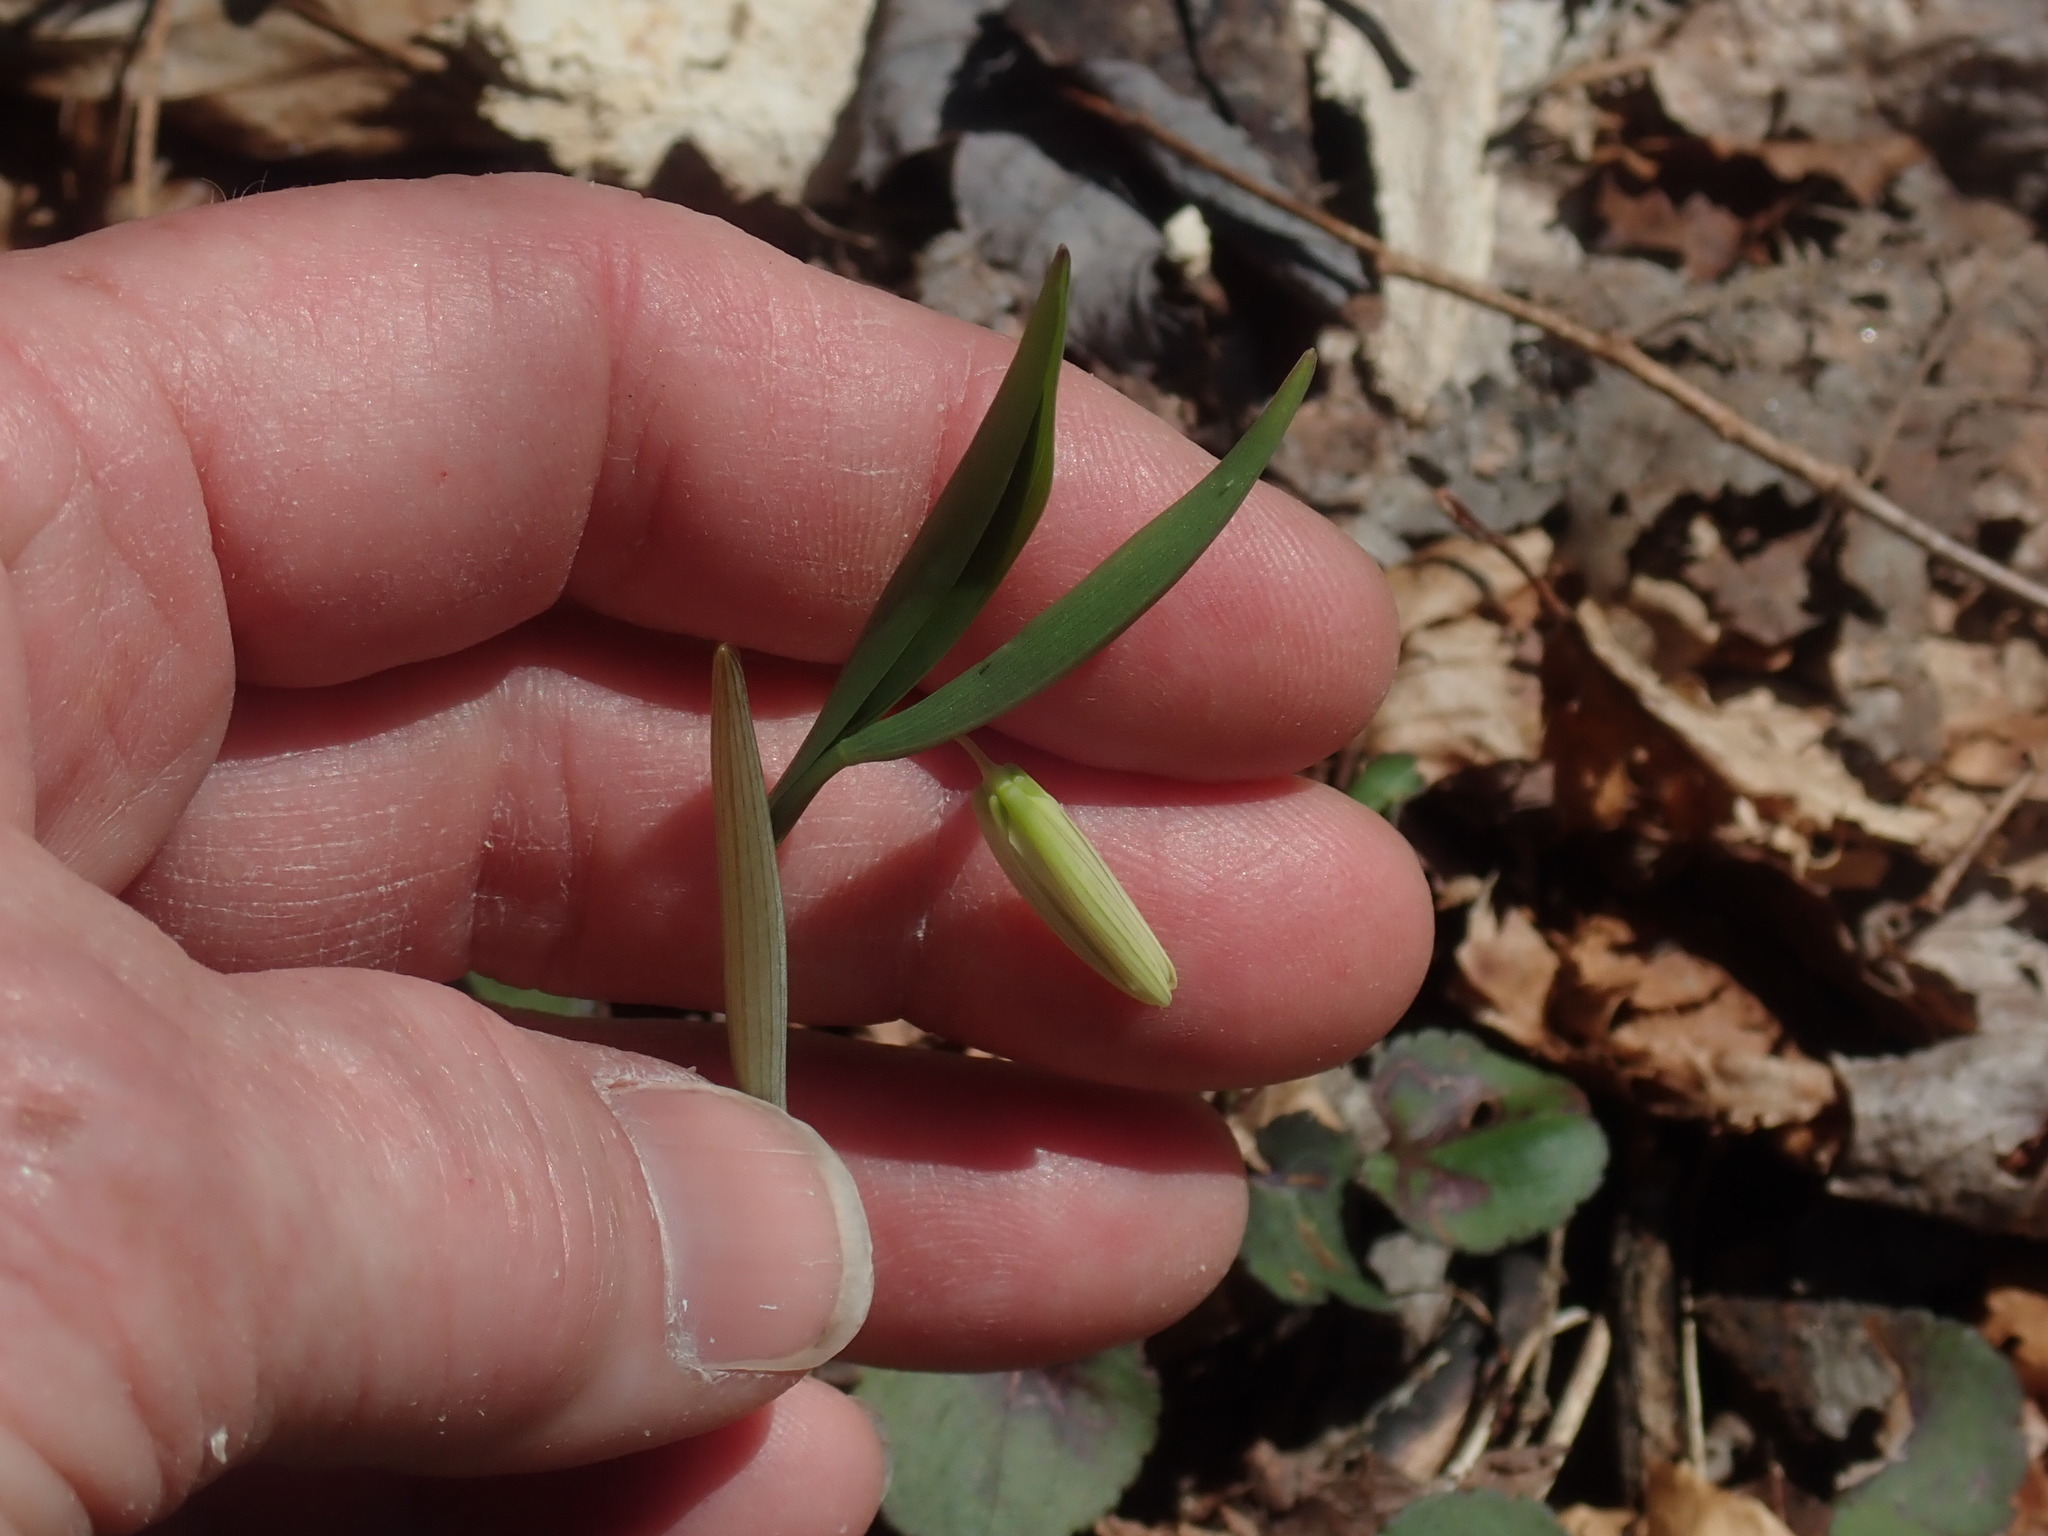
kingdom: Plantae
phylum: Tracheophyta
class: Liliopsida
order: Liliales
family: Colchicaceae
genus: Uvularia
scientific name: Uvularia sessilifolia
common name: Straw-lily
